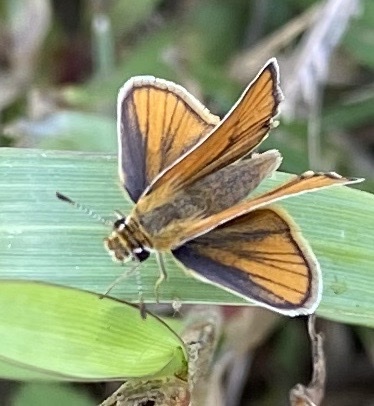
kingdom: Animalia
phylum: Arthropoda
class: Insecta
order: Lepidoptera
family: Hesperiidae
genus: Copaeodes
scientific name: Copaeodes minima
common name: Southern skipperling
